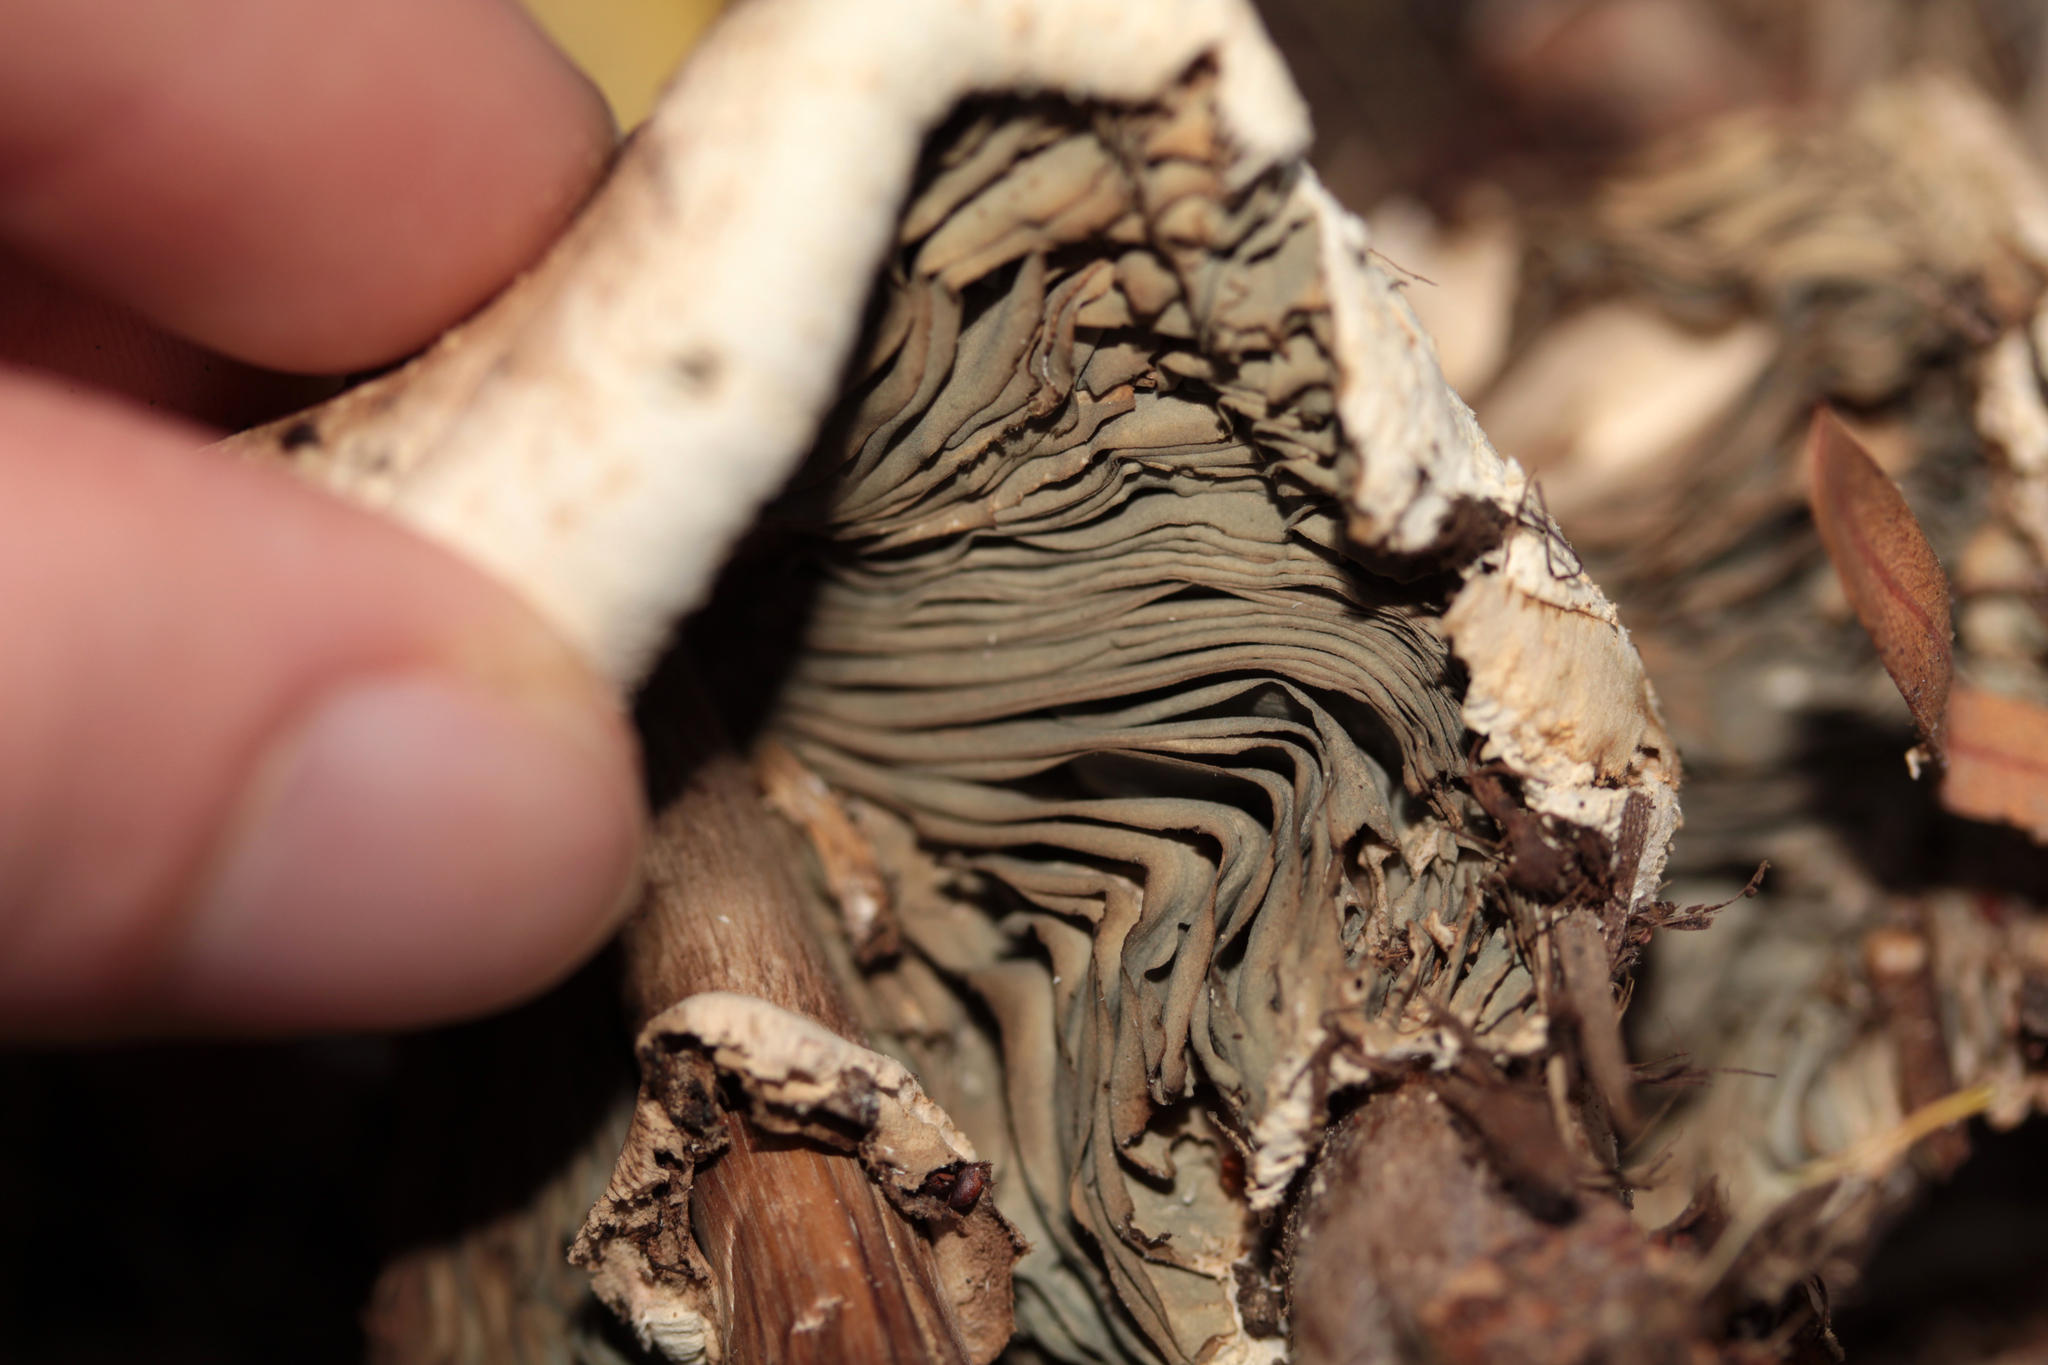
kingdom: Fungi
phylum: Basidiomycota
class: Agaricomycetes
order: Agaricales
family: Agaricaceae
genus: Chlorophyllum
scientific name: Chlorophyllum molybdites
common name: False parasol
